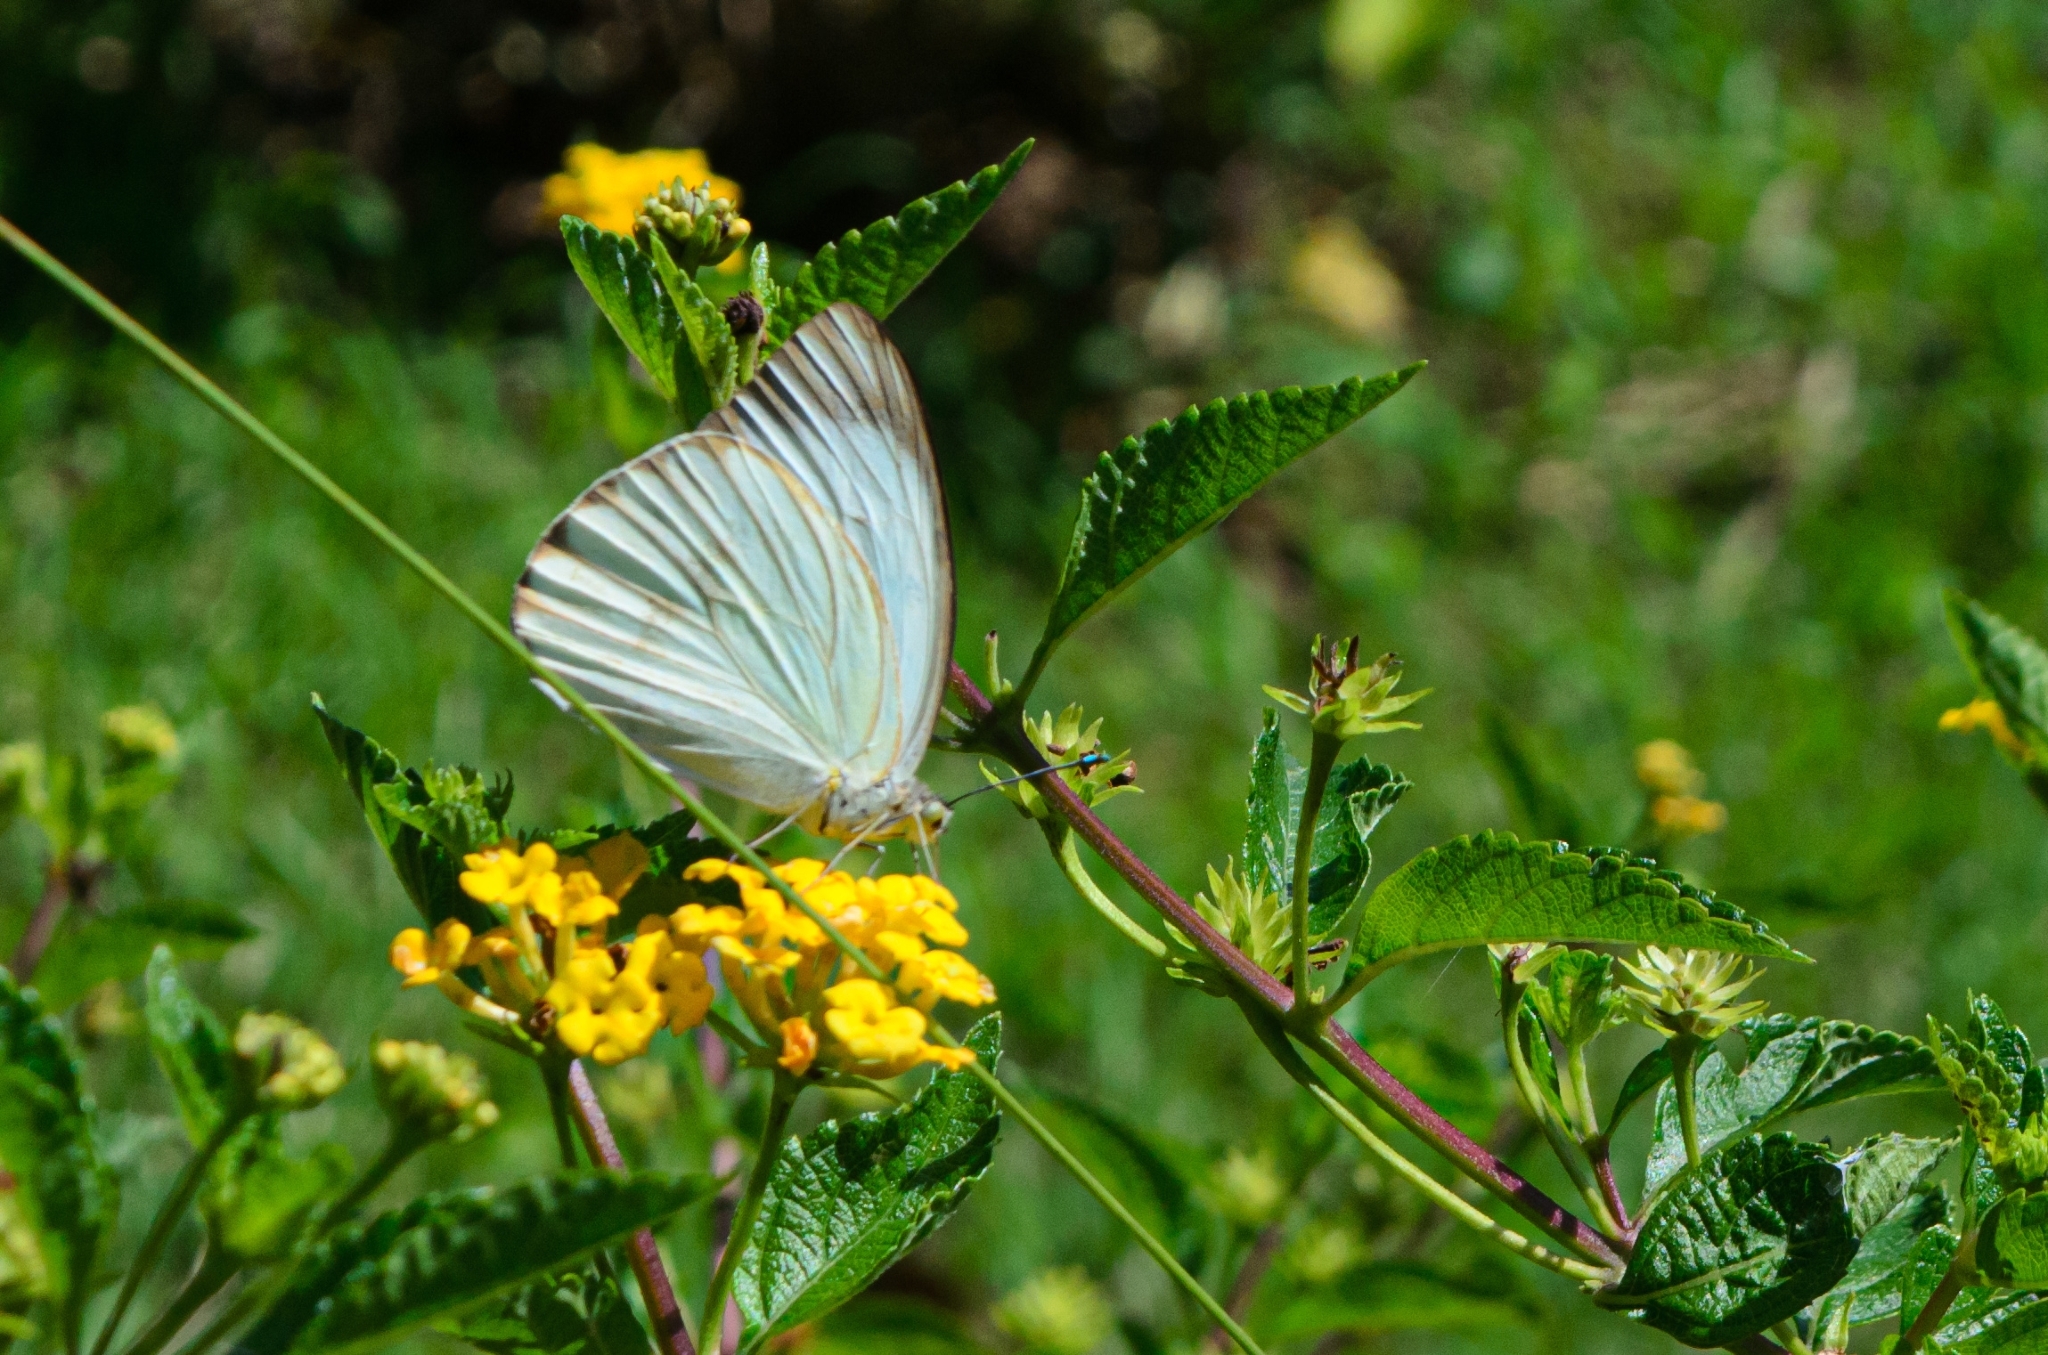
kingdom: Animalia
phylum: Arthropoda
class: Insecta
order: Lepidoptera
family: Pieridae
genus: Ascia
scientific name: Ascia monuste
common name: Great southern white
